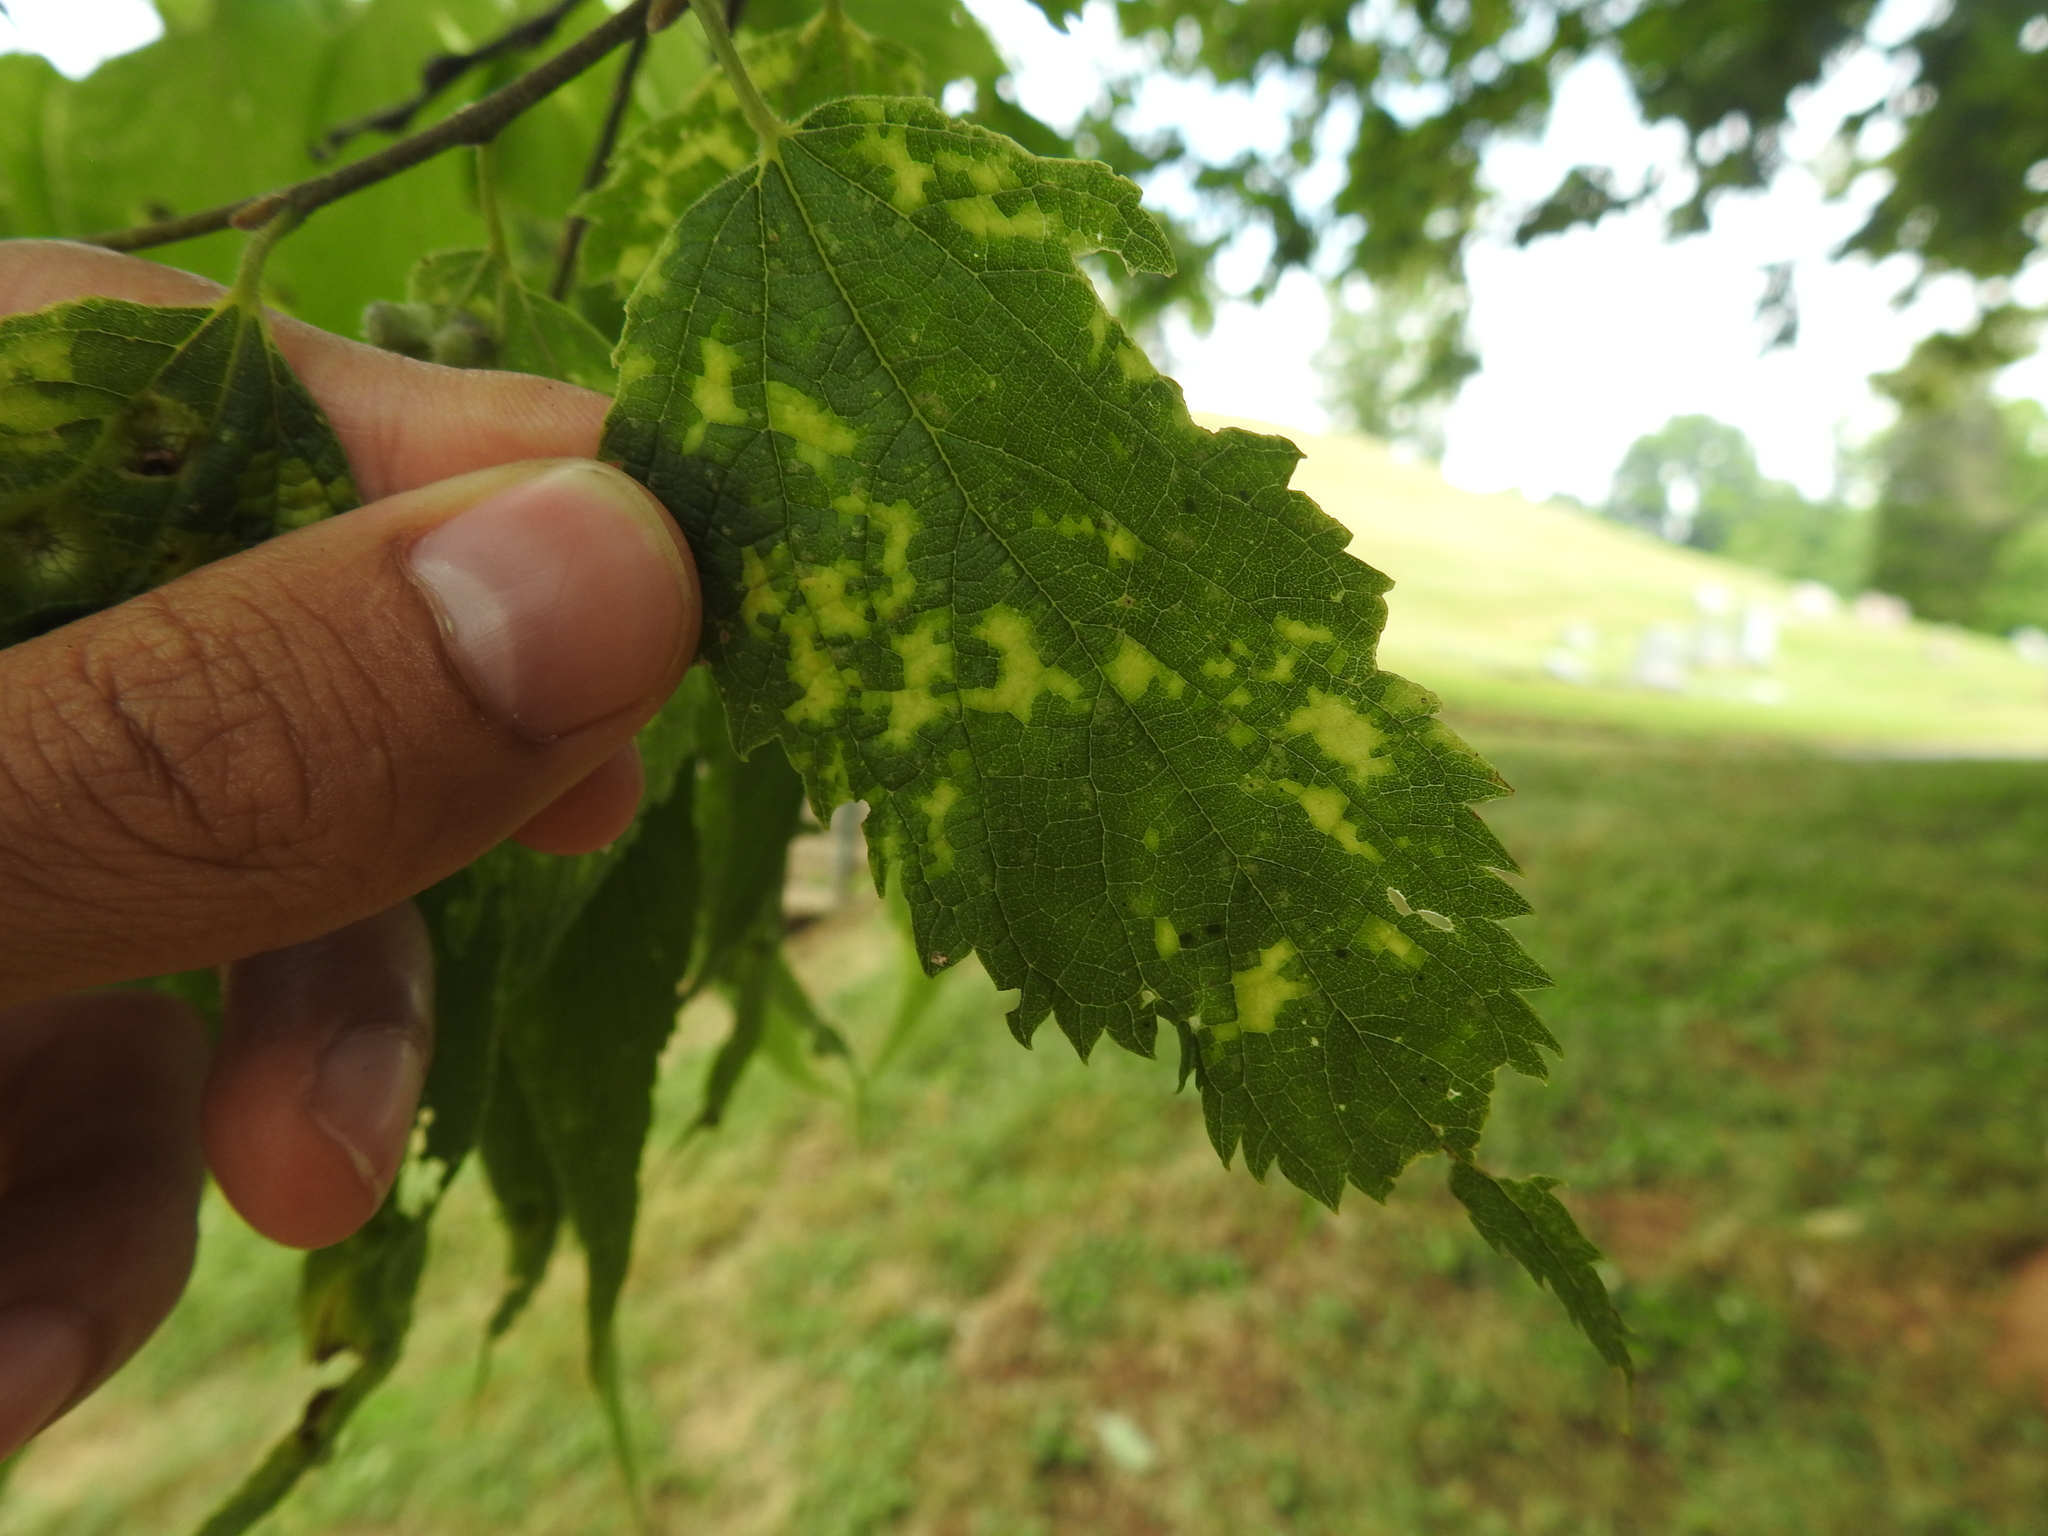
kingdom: Viruses
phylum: Kitrinoviricota
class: Alsuviricetes
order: Martellivirales
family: Closteroviridae
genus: Ampelovirus
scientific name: Ampelovirus
